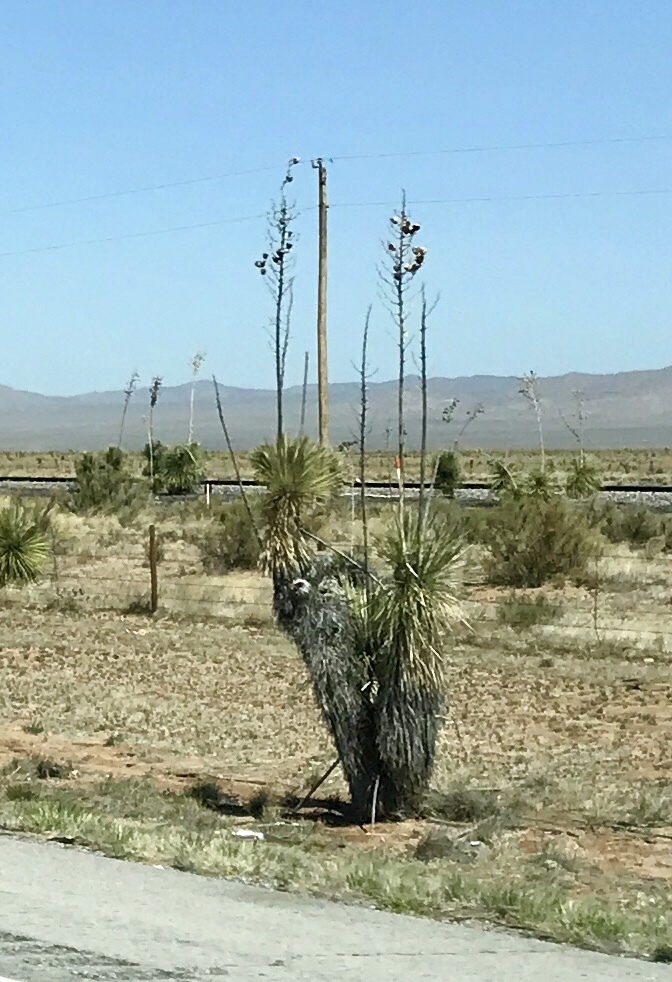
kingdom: Plantae
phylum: Tracheophyta
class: Liliopsida
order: Asparagales
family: Asparagaceae
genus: Yucca
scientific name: Yucca elata
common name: Palmella
